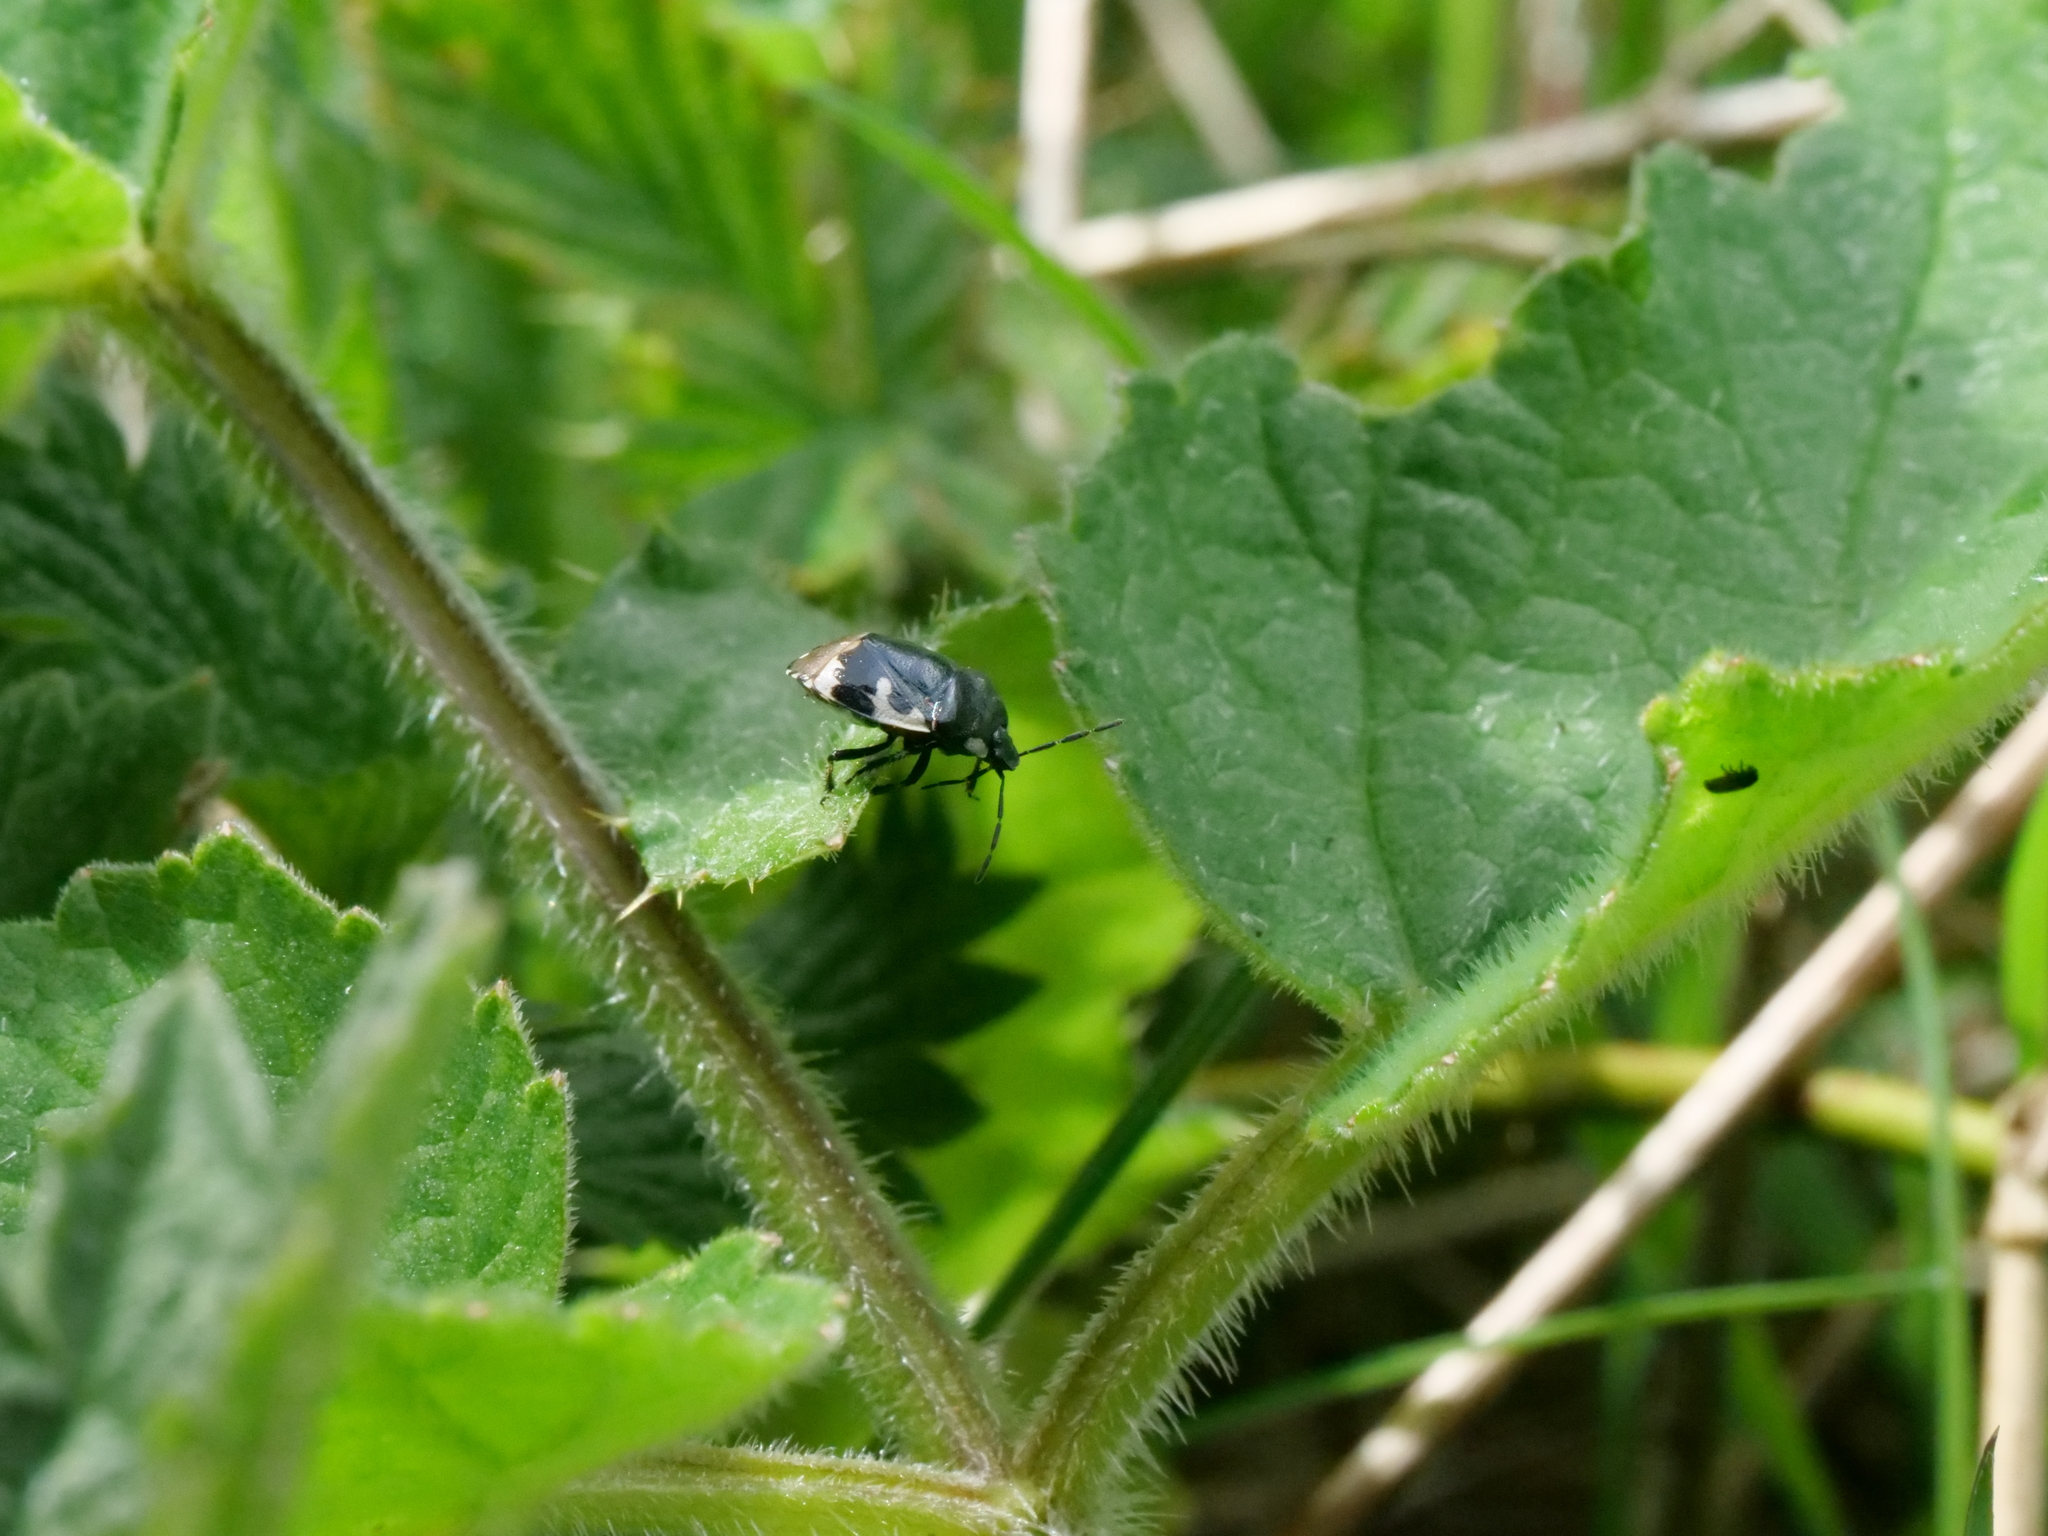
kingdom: Animalia
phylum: Arthropoda
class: Insecta
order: Hemiptera
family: Cydnidae
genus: Tritomegas
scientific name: Tritomegas bicolor
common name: Pied shieldbug
